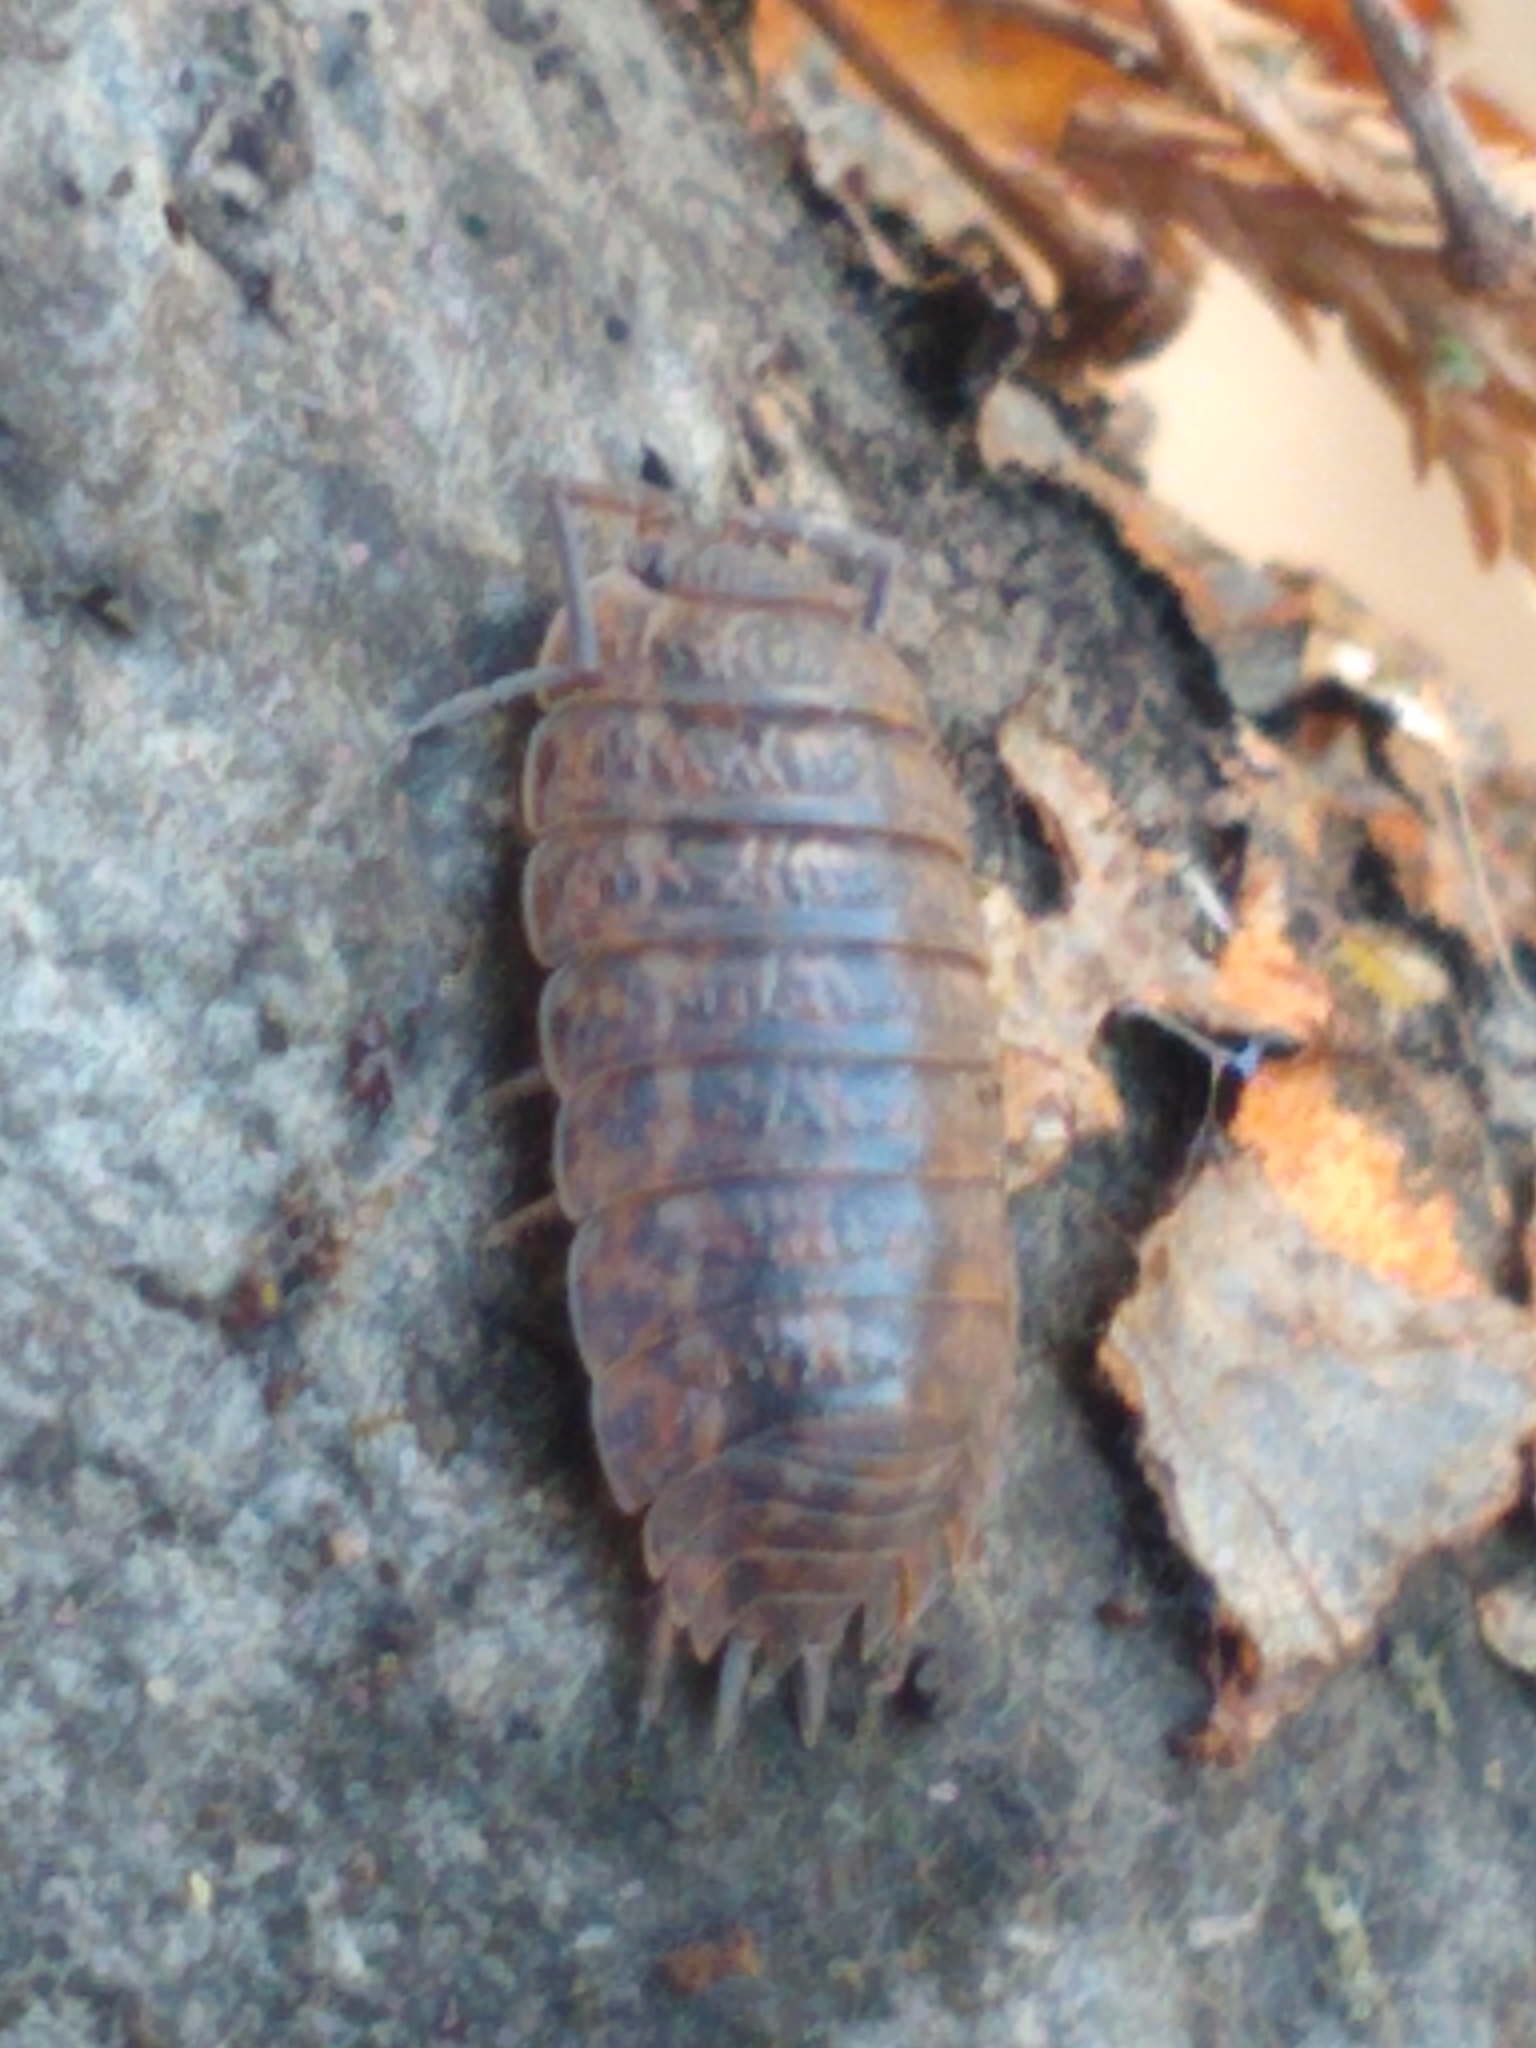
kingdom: Animalia
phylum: Arthropoda
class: Malacostraca
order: Isopoda
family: Trachelipodidae
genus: Trachelipus
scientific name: Trachelipus rathkii
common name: Isopod
